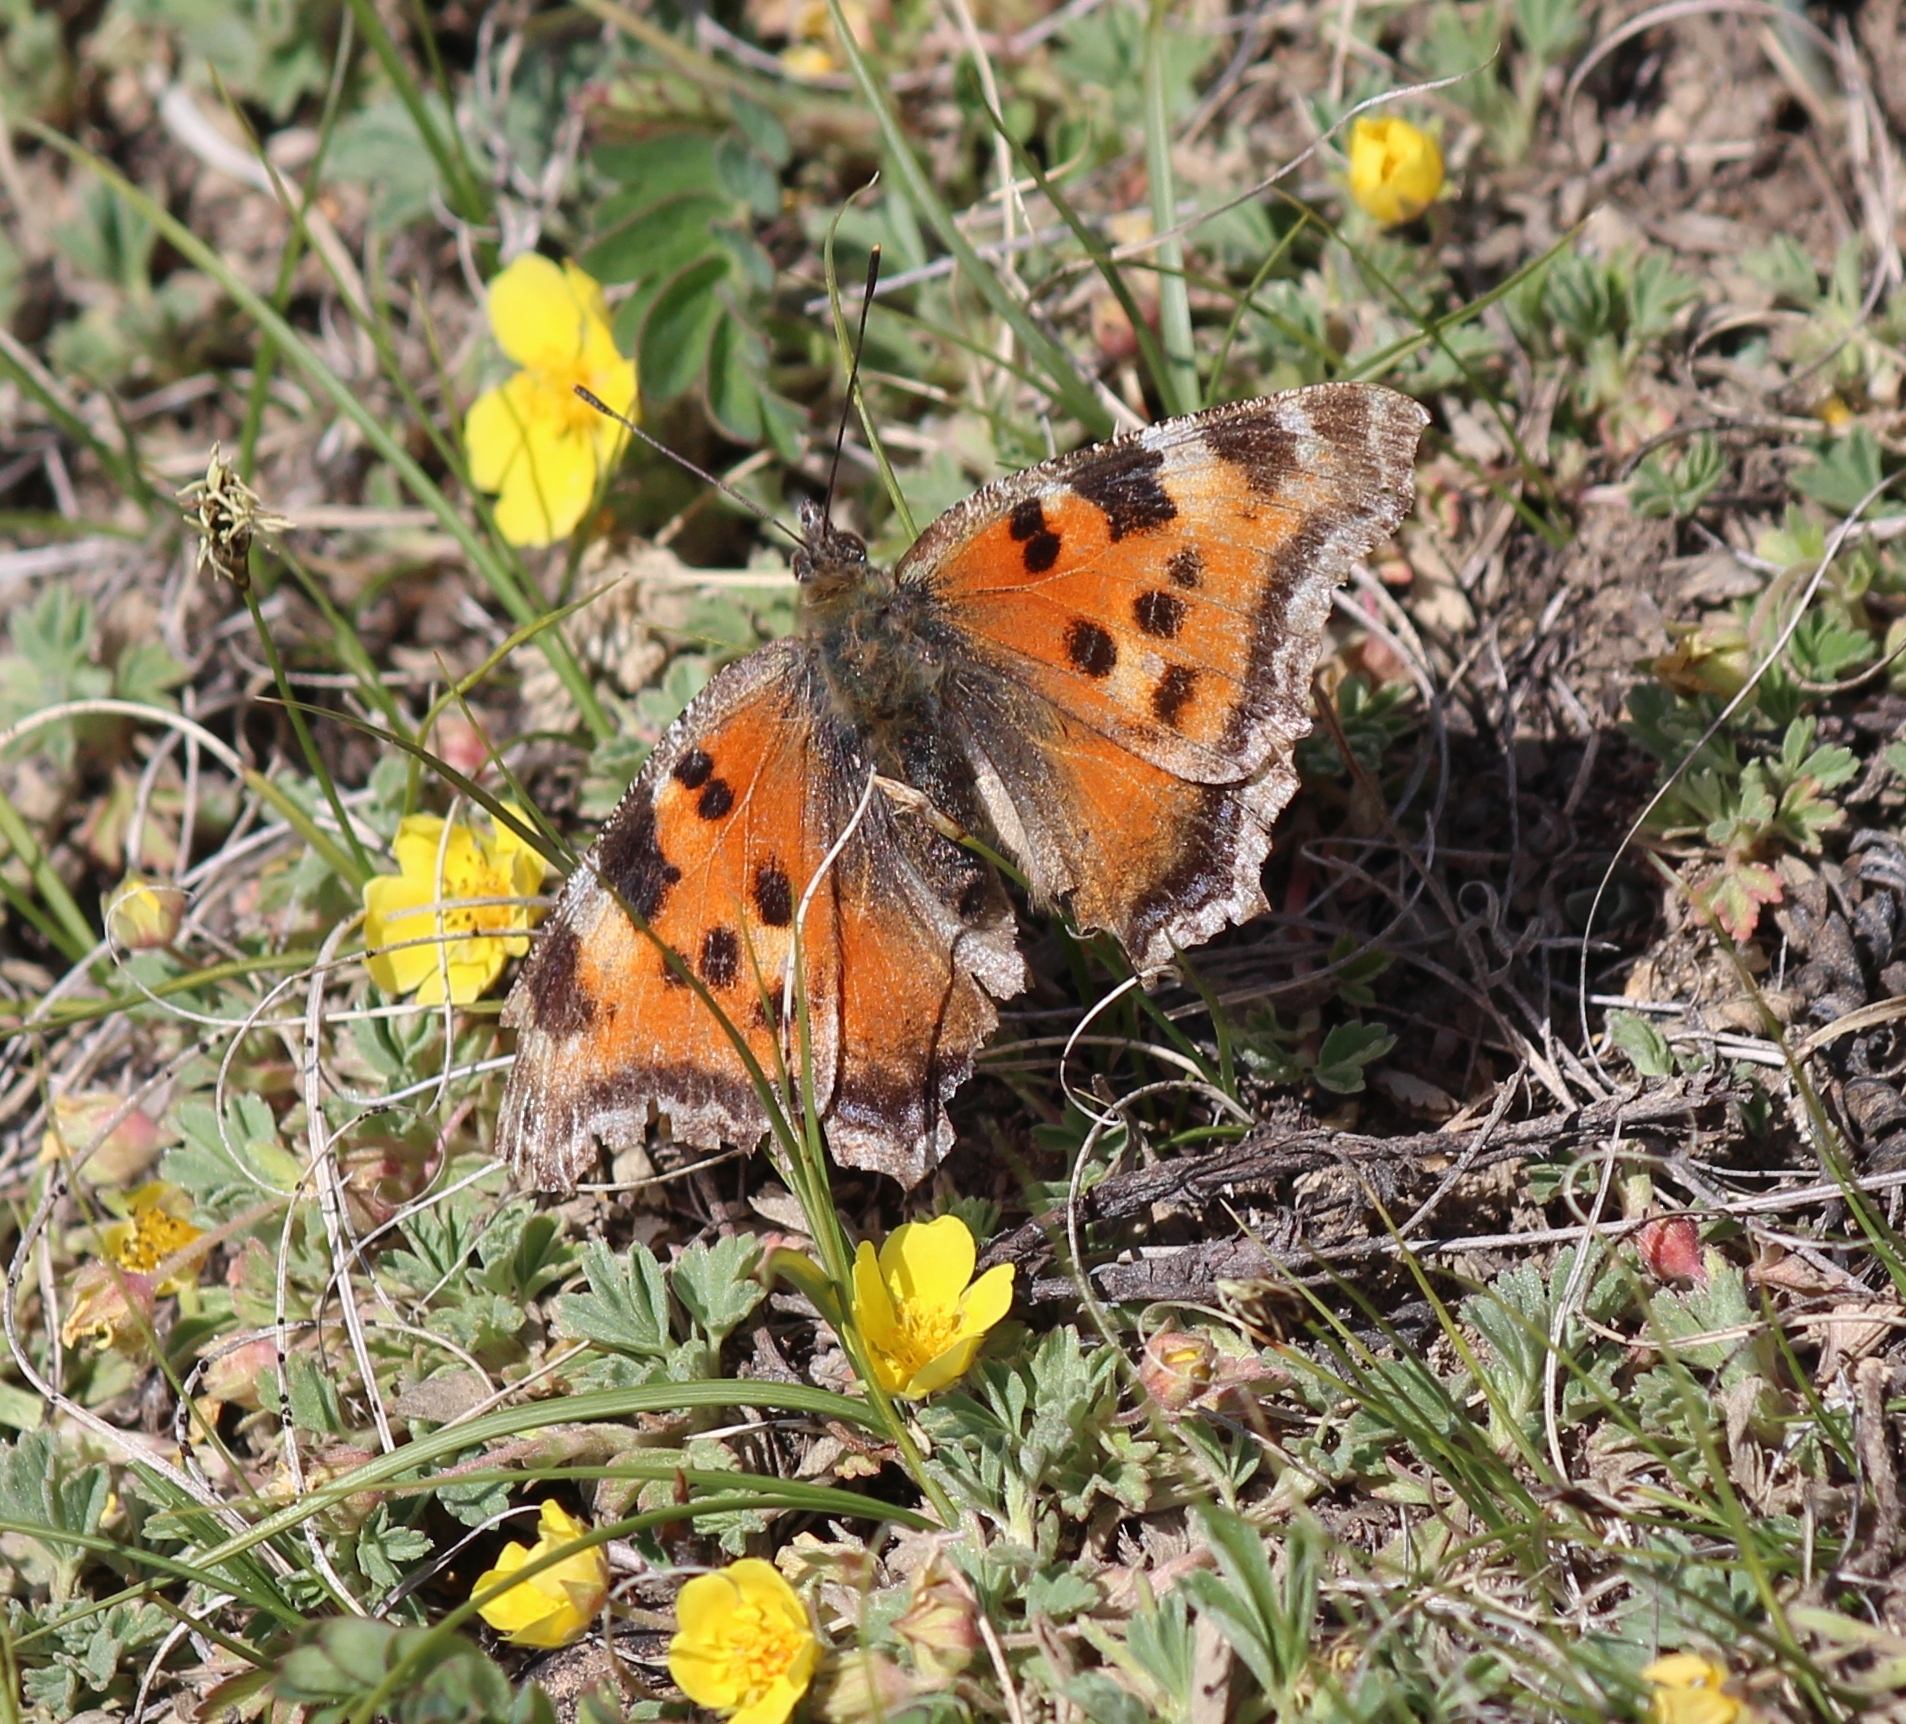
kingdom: Animalia
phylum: Arthropoda
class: Insecta
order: Lepidoptera
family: Nymphalidae
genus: Nymphalis
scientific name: Nymphalis xanthomelas
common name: Scarce tortoiseshell
